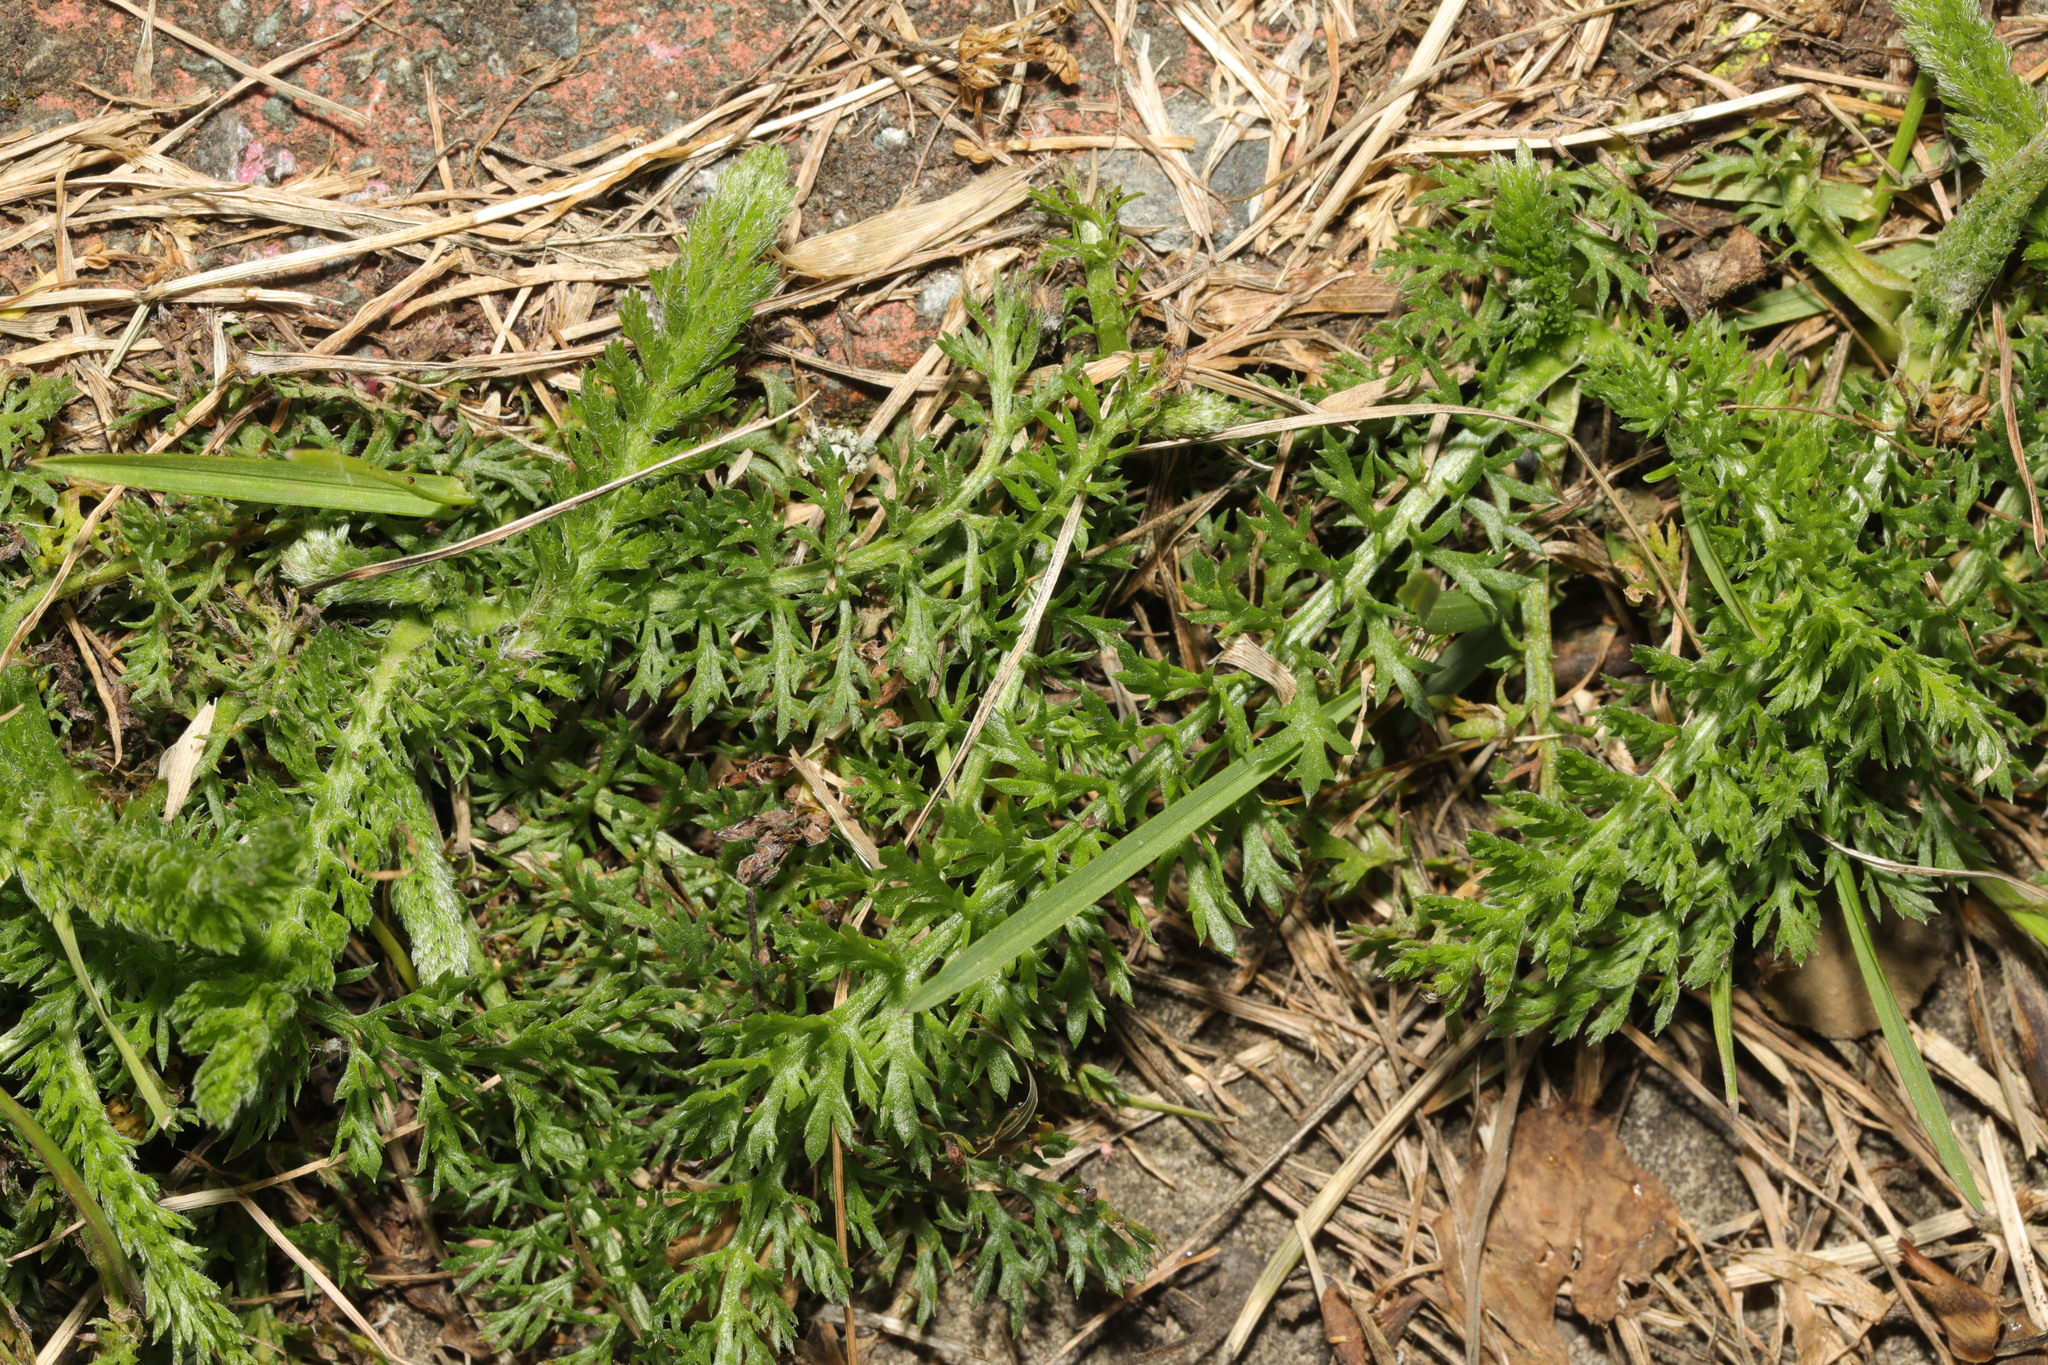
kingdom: Plantae
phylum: Tracheophyta
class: Magnoliopsida
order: Asterales
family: Asteraceae
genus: Achillea
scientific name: Achillea millefolium
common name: Yarrow
